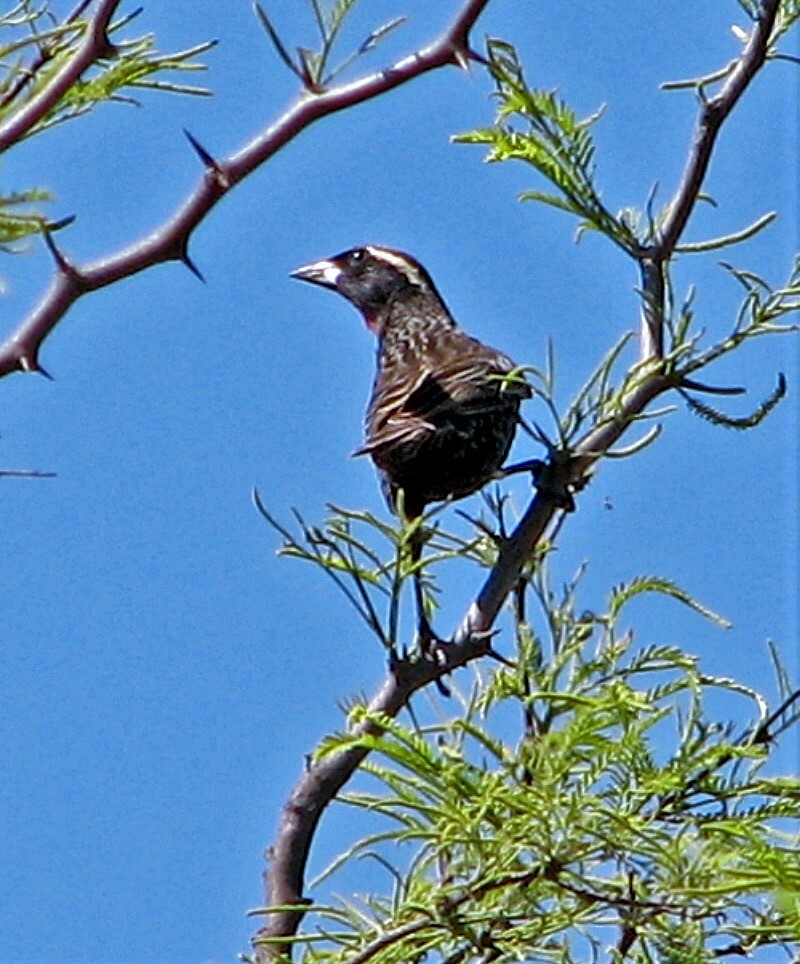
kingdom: Animalia
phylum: Chordata
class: Aves
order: Passeriformes
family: Icteridae
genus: Sturnella
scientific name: Sturnella superciliaris
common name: White-browed blackbird
